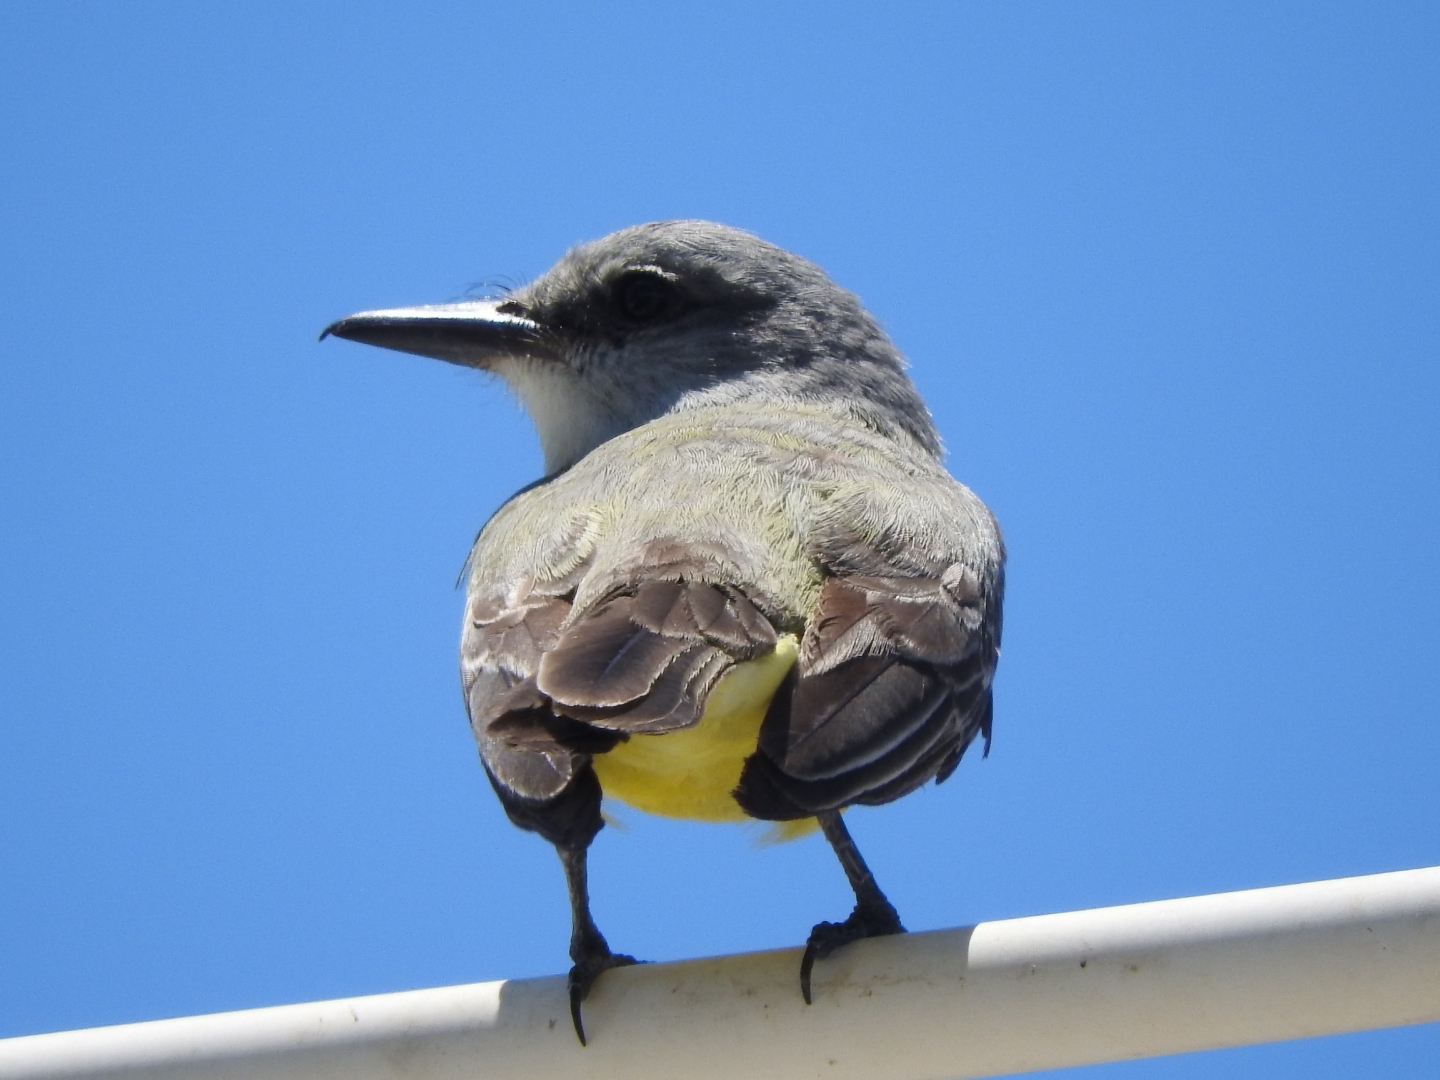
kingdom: Animalia
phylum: Chordata
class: Aves
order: Passeriformes
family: Tyrannidae
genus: Tyrannus
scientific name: Tyrannus melancholicus
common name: Tropical kingbird
